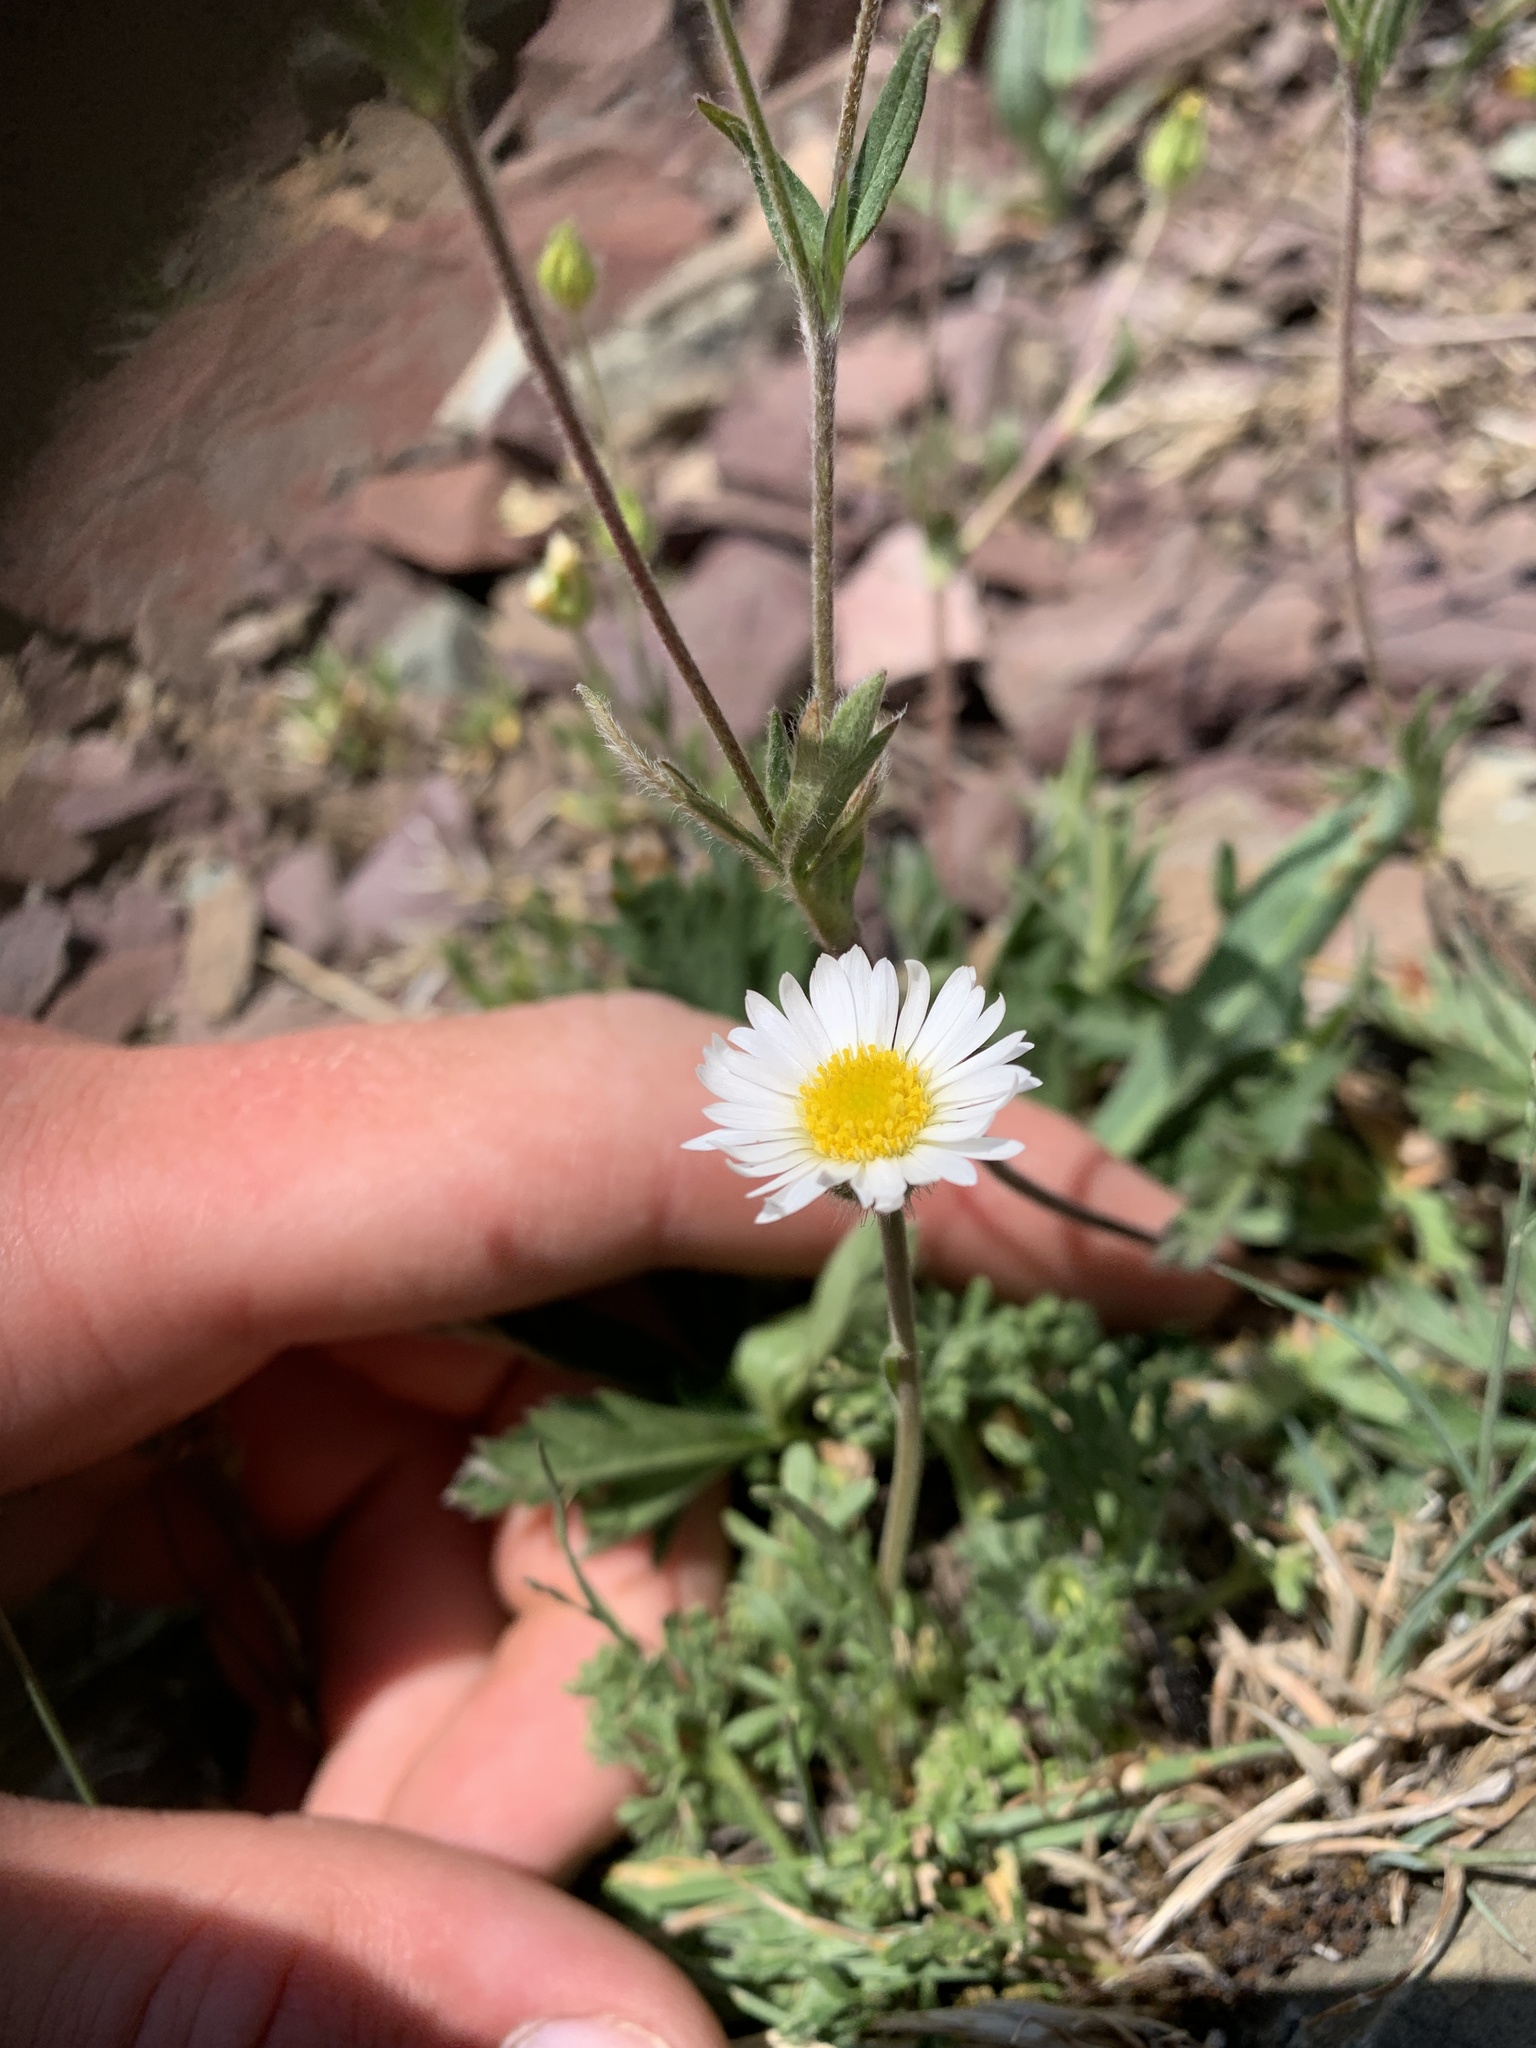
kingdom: Plantae
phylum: Tracheophyta
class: Magnoliopsida
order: Asterales
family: Asteraceae
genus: Erigeron
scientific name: Erigeron compositus
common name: Dwarf mountain fleabane
